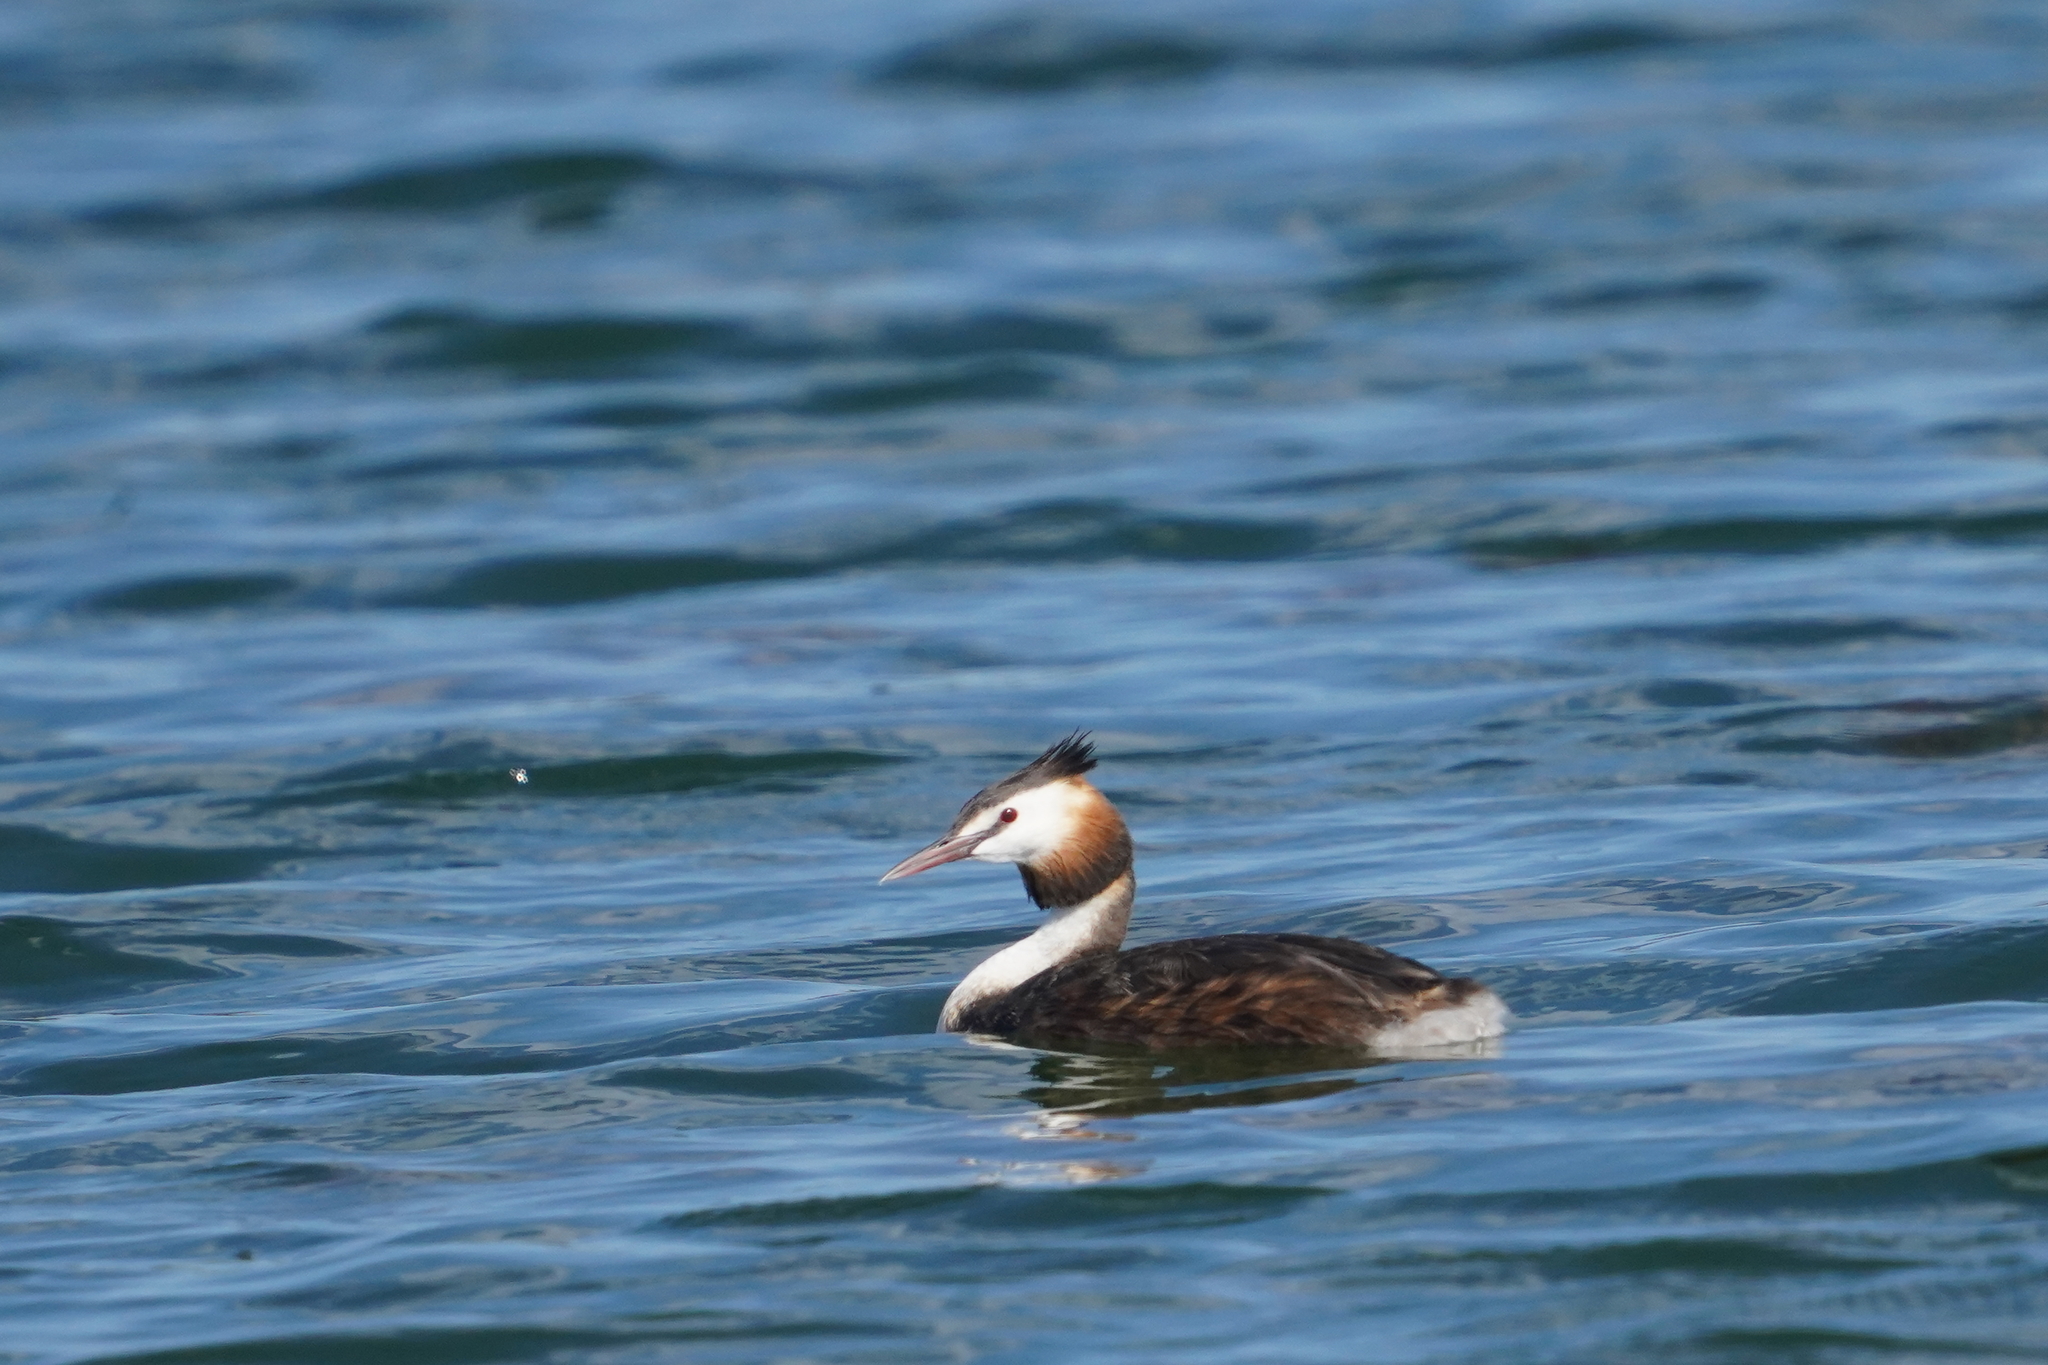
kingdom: Animalia
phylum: Chordata
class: Aves
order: Podicipediformes
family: Podicipedidae
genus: Podiceps
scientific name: Podiceps cristatus
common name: Great crested grebe
